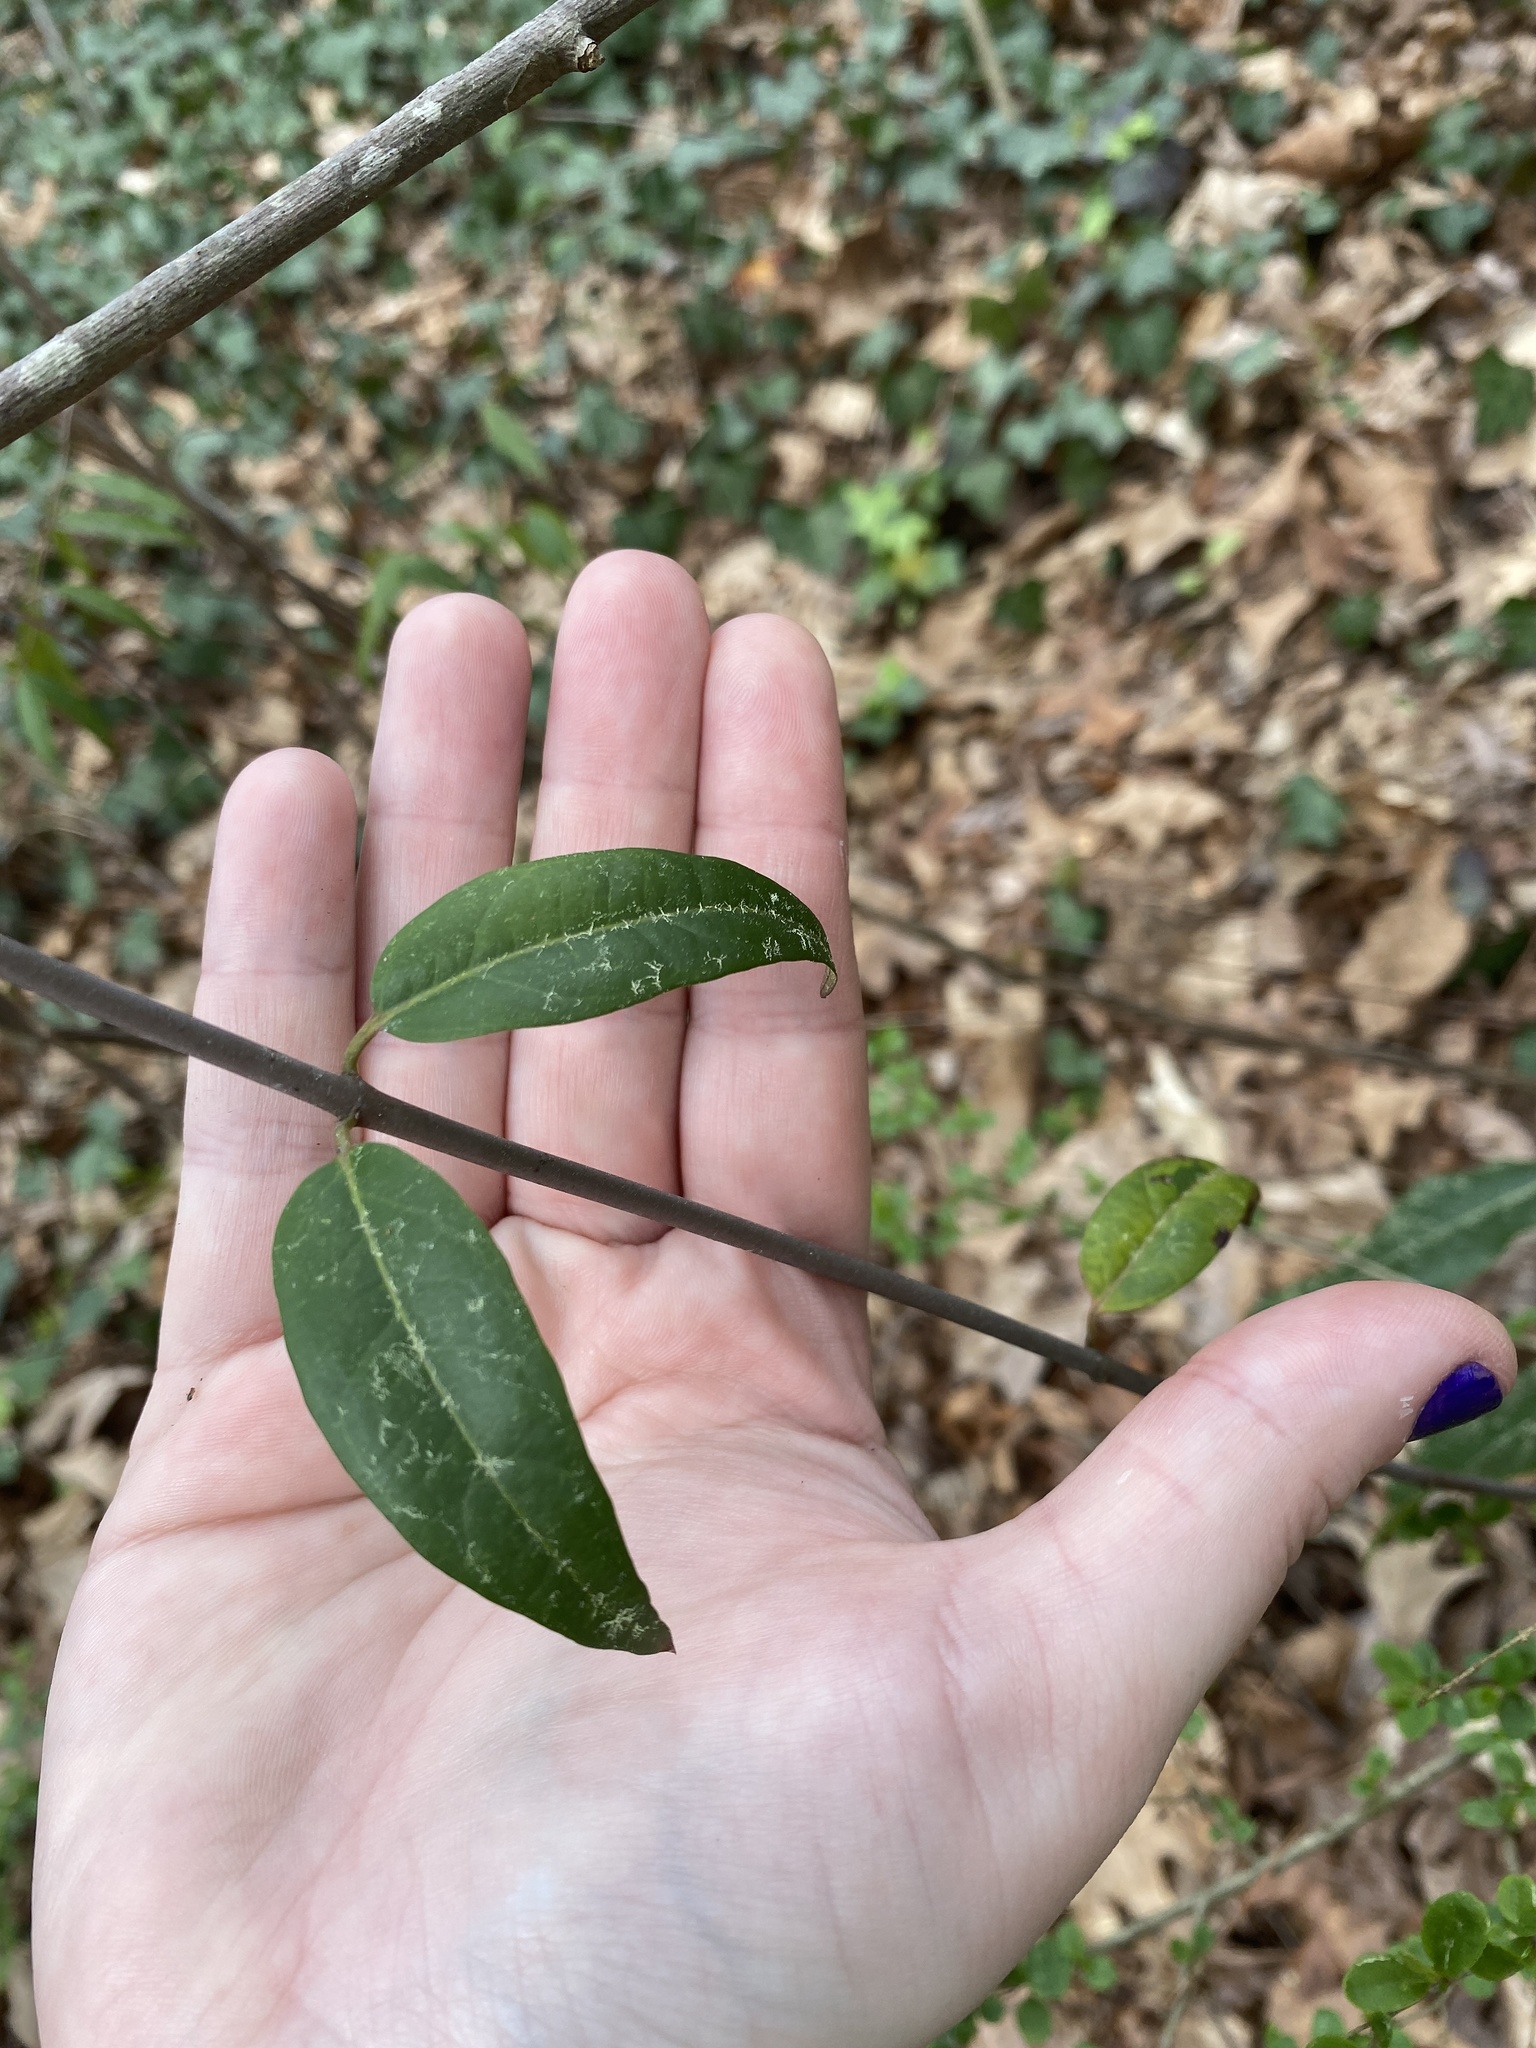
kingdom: Plantae
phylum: Tracheophyta
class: Magnoliopsida
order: Gentianales
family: Gelsemiaceae
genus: Gelsemium
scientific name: Gelsemium sempervirens
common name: Carolina-jasmine
